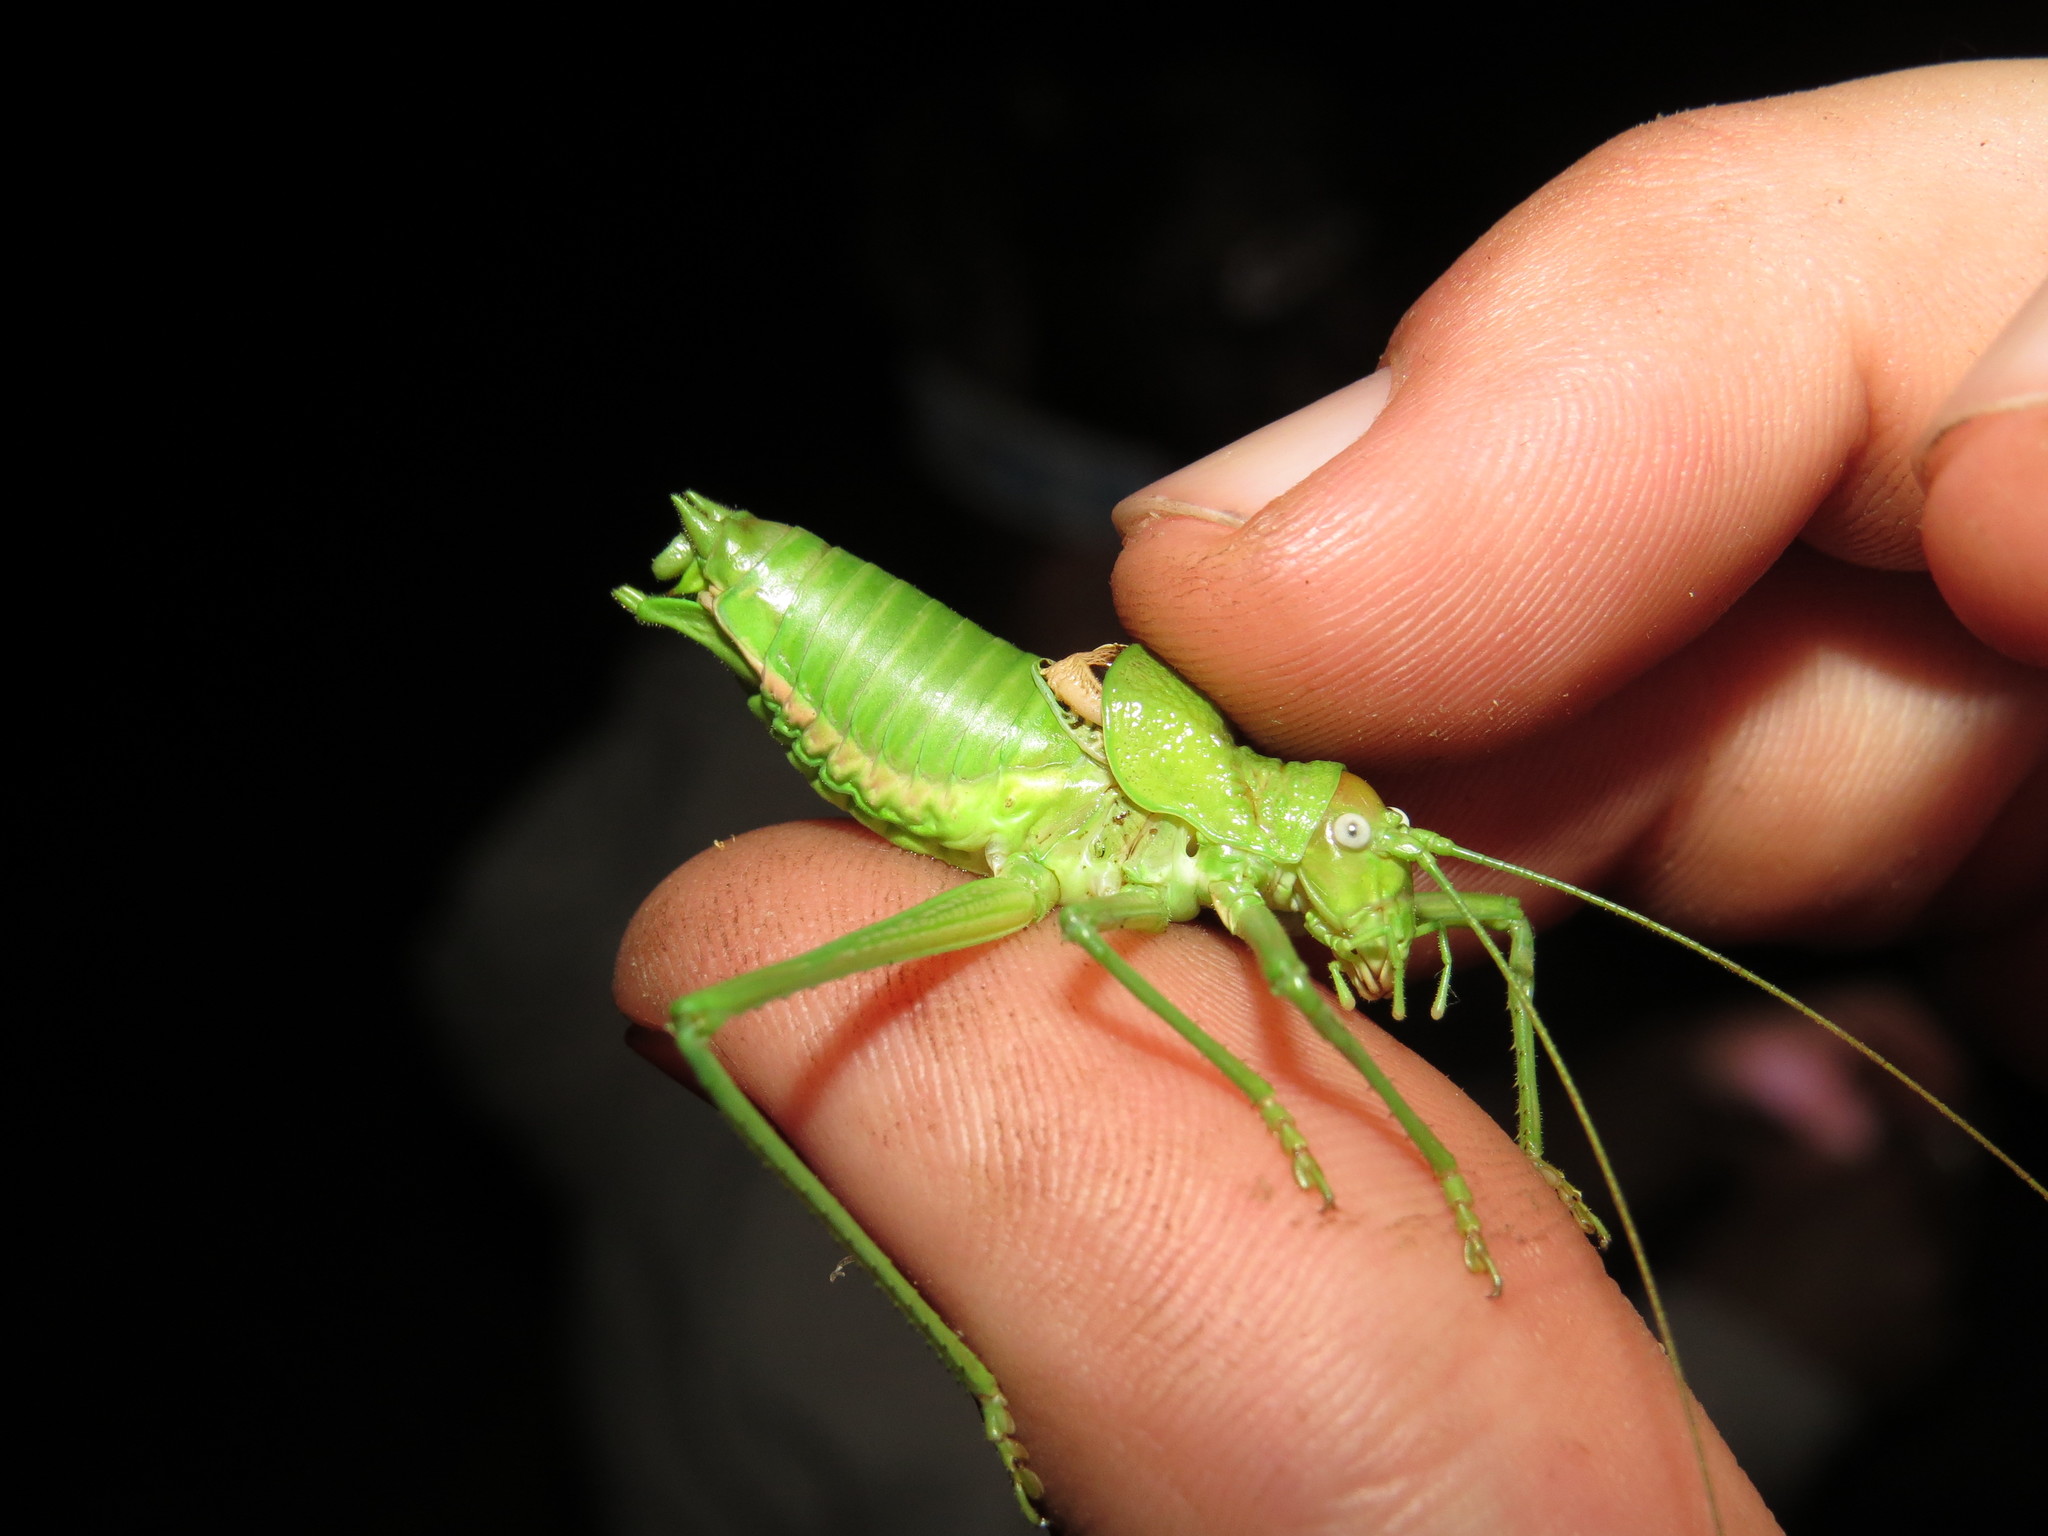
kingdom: Animalia
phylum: Arthropoda
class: Insecta
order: Orthoptera
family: Tettigoniidae
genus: Uromenus
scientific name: Uromenus rugosicollis
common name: Rough saddle bush-cricket
